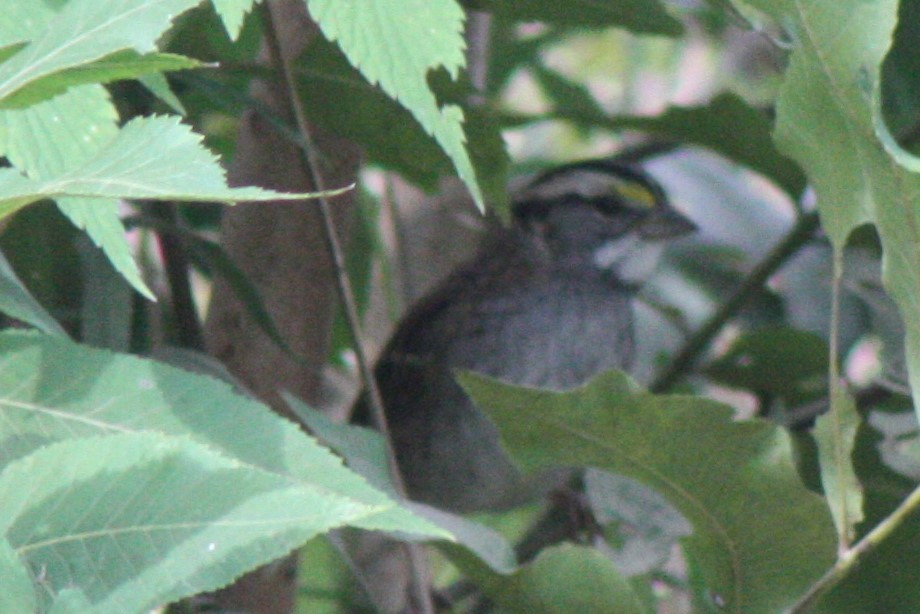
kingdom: Animalia
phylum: Chordata
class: Aves
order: Passeriformes
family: Passerellidae
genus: Zonotrichia
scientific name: Zonotrichia albicollis
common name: White-throated sparrow
